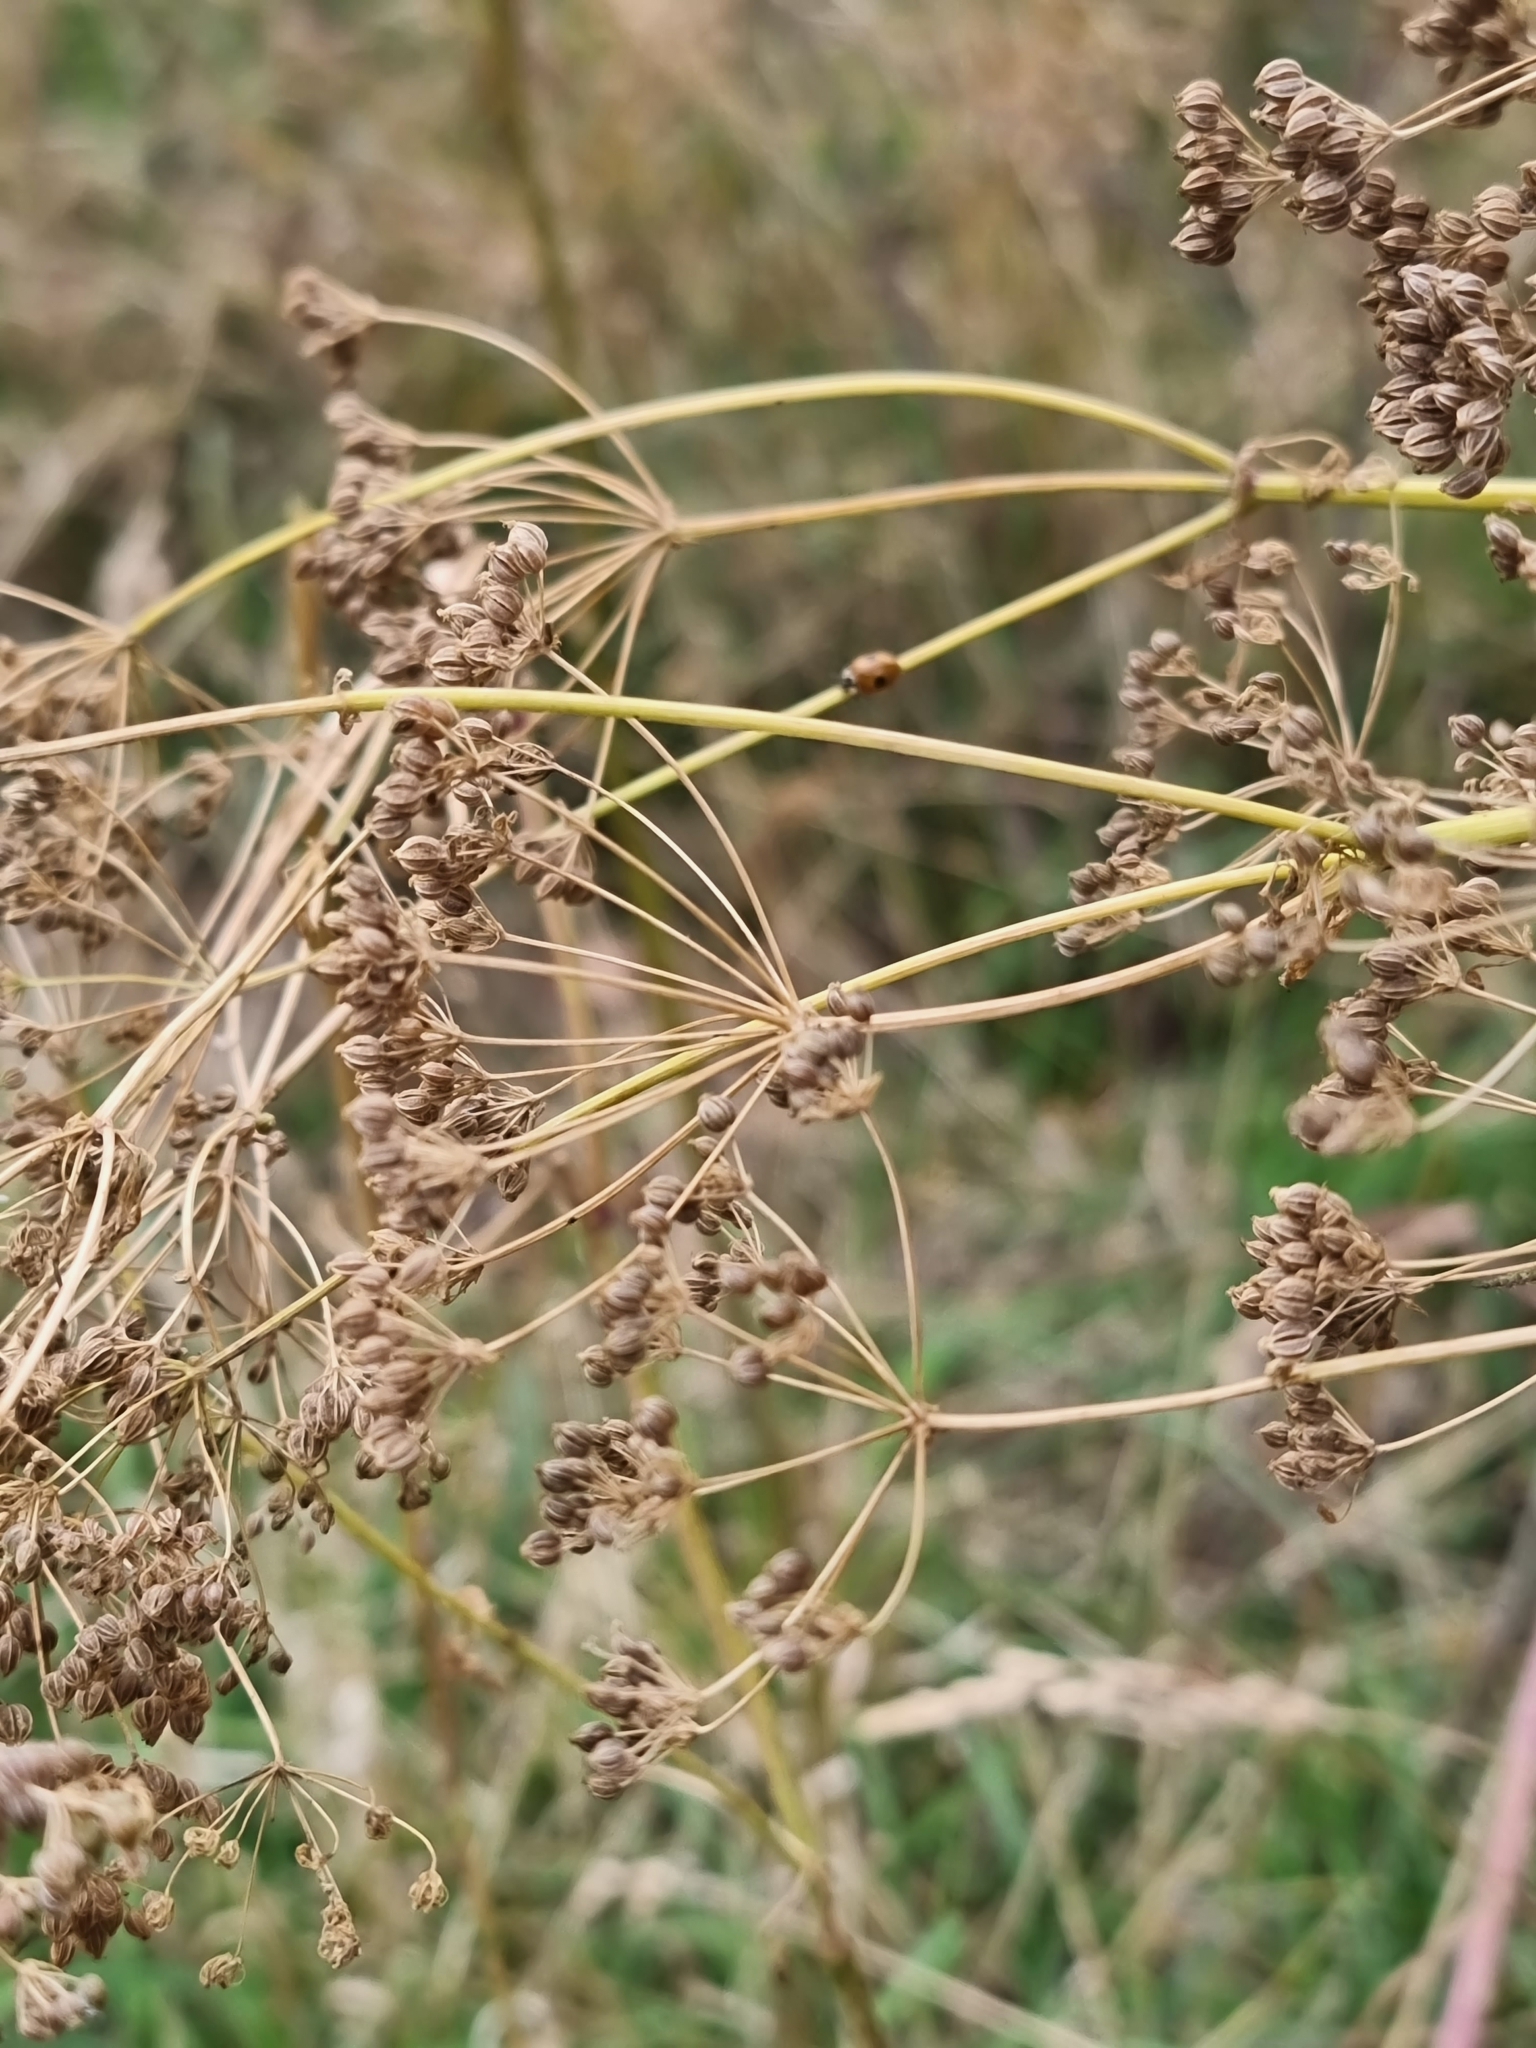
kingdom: Plantae
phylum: Tracheophyta
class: Magnoliopsida
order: Apiales
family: Apiaceae
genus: Conium
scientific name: Conium maculatum
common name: Hemlock
